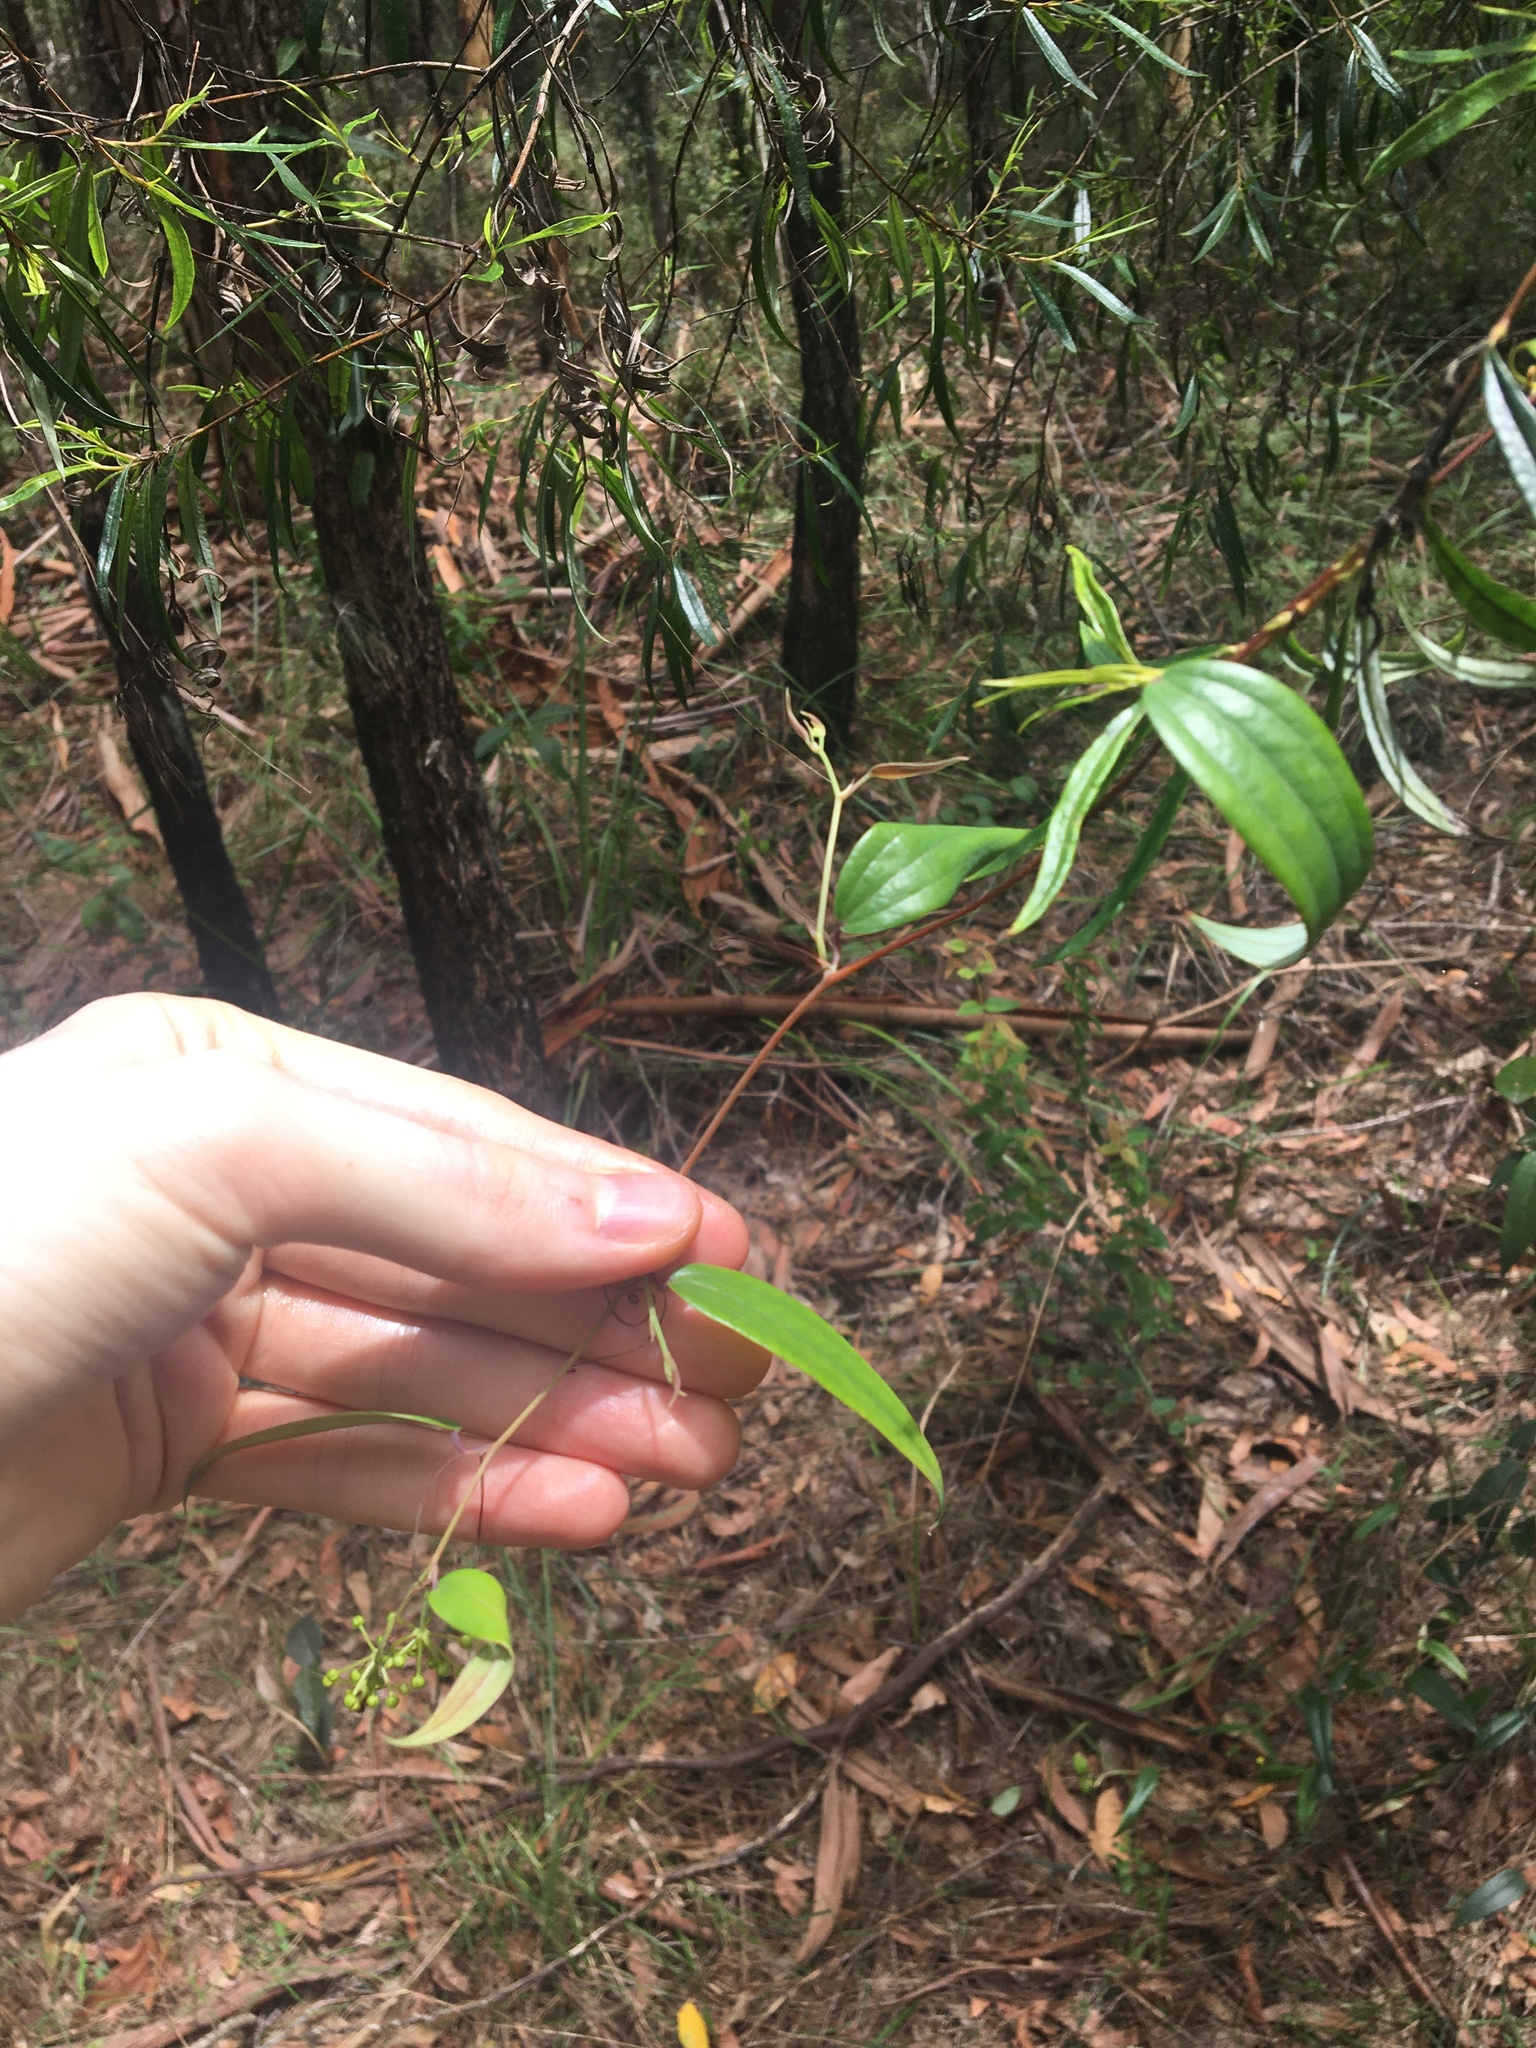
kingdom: Plantae
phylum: Tracheophyta
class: Liliopsida
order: Liliales
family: Smilacaceae
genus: Smilax
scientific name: Smilax glyciphylla
